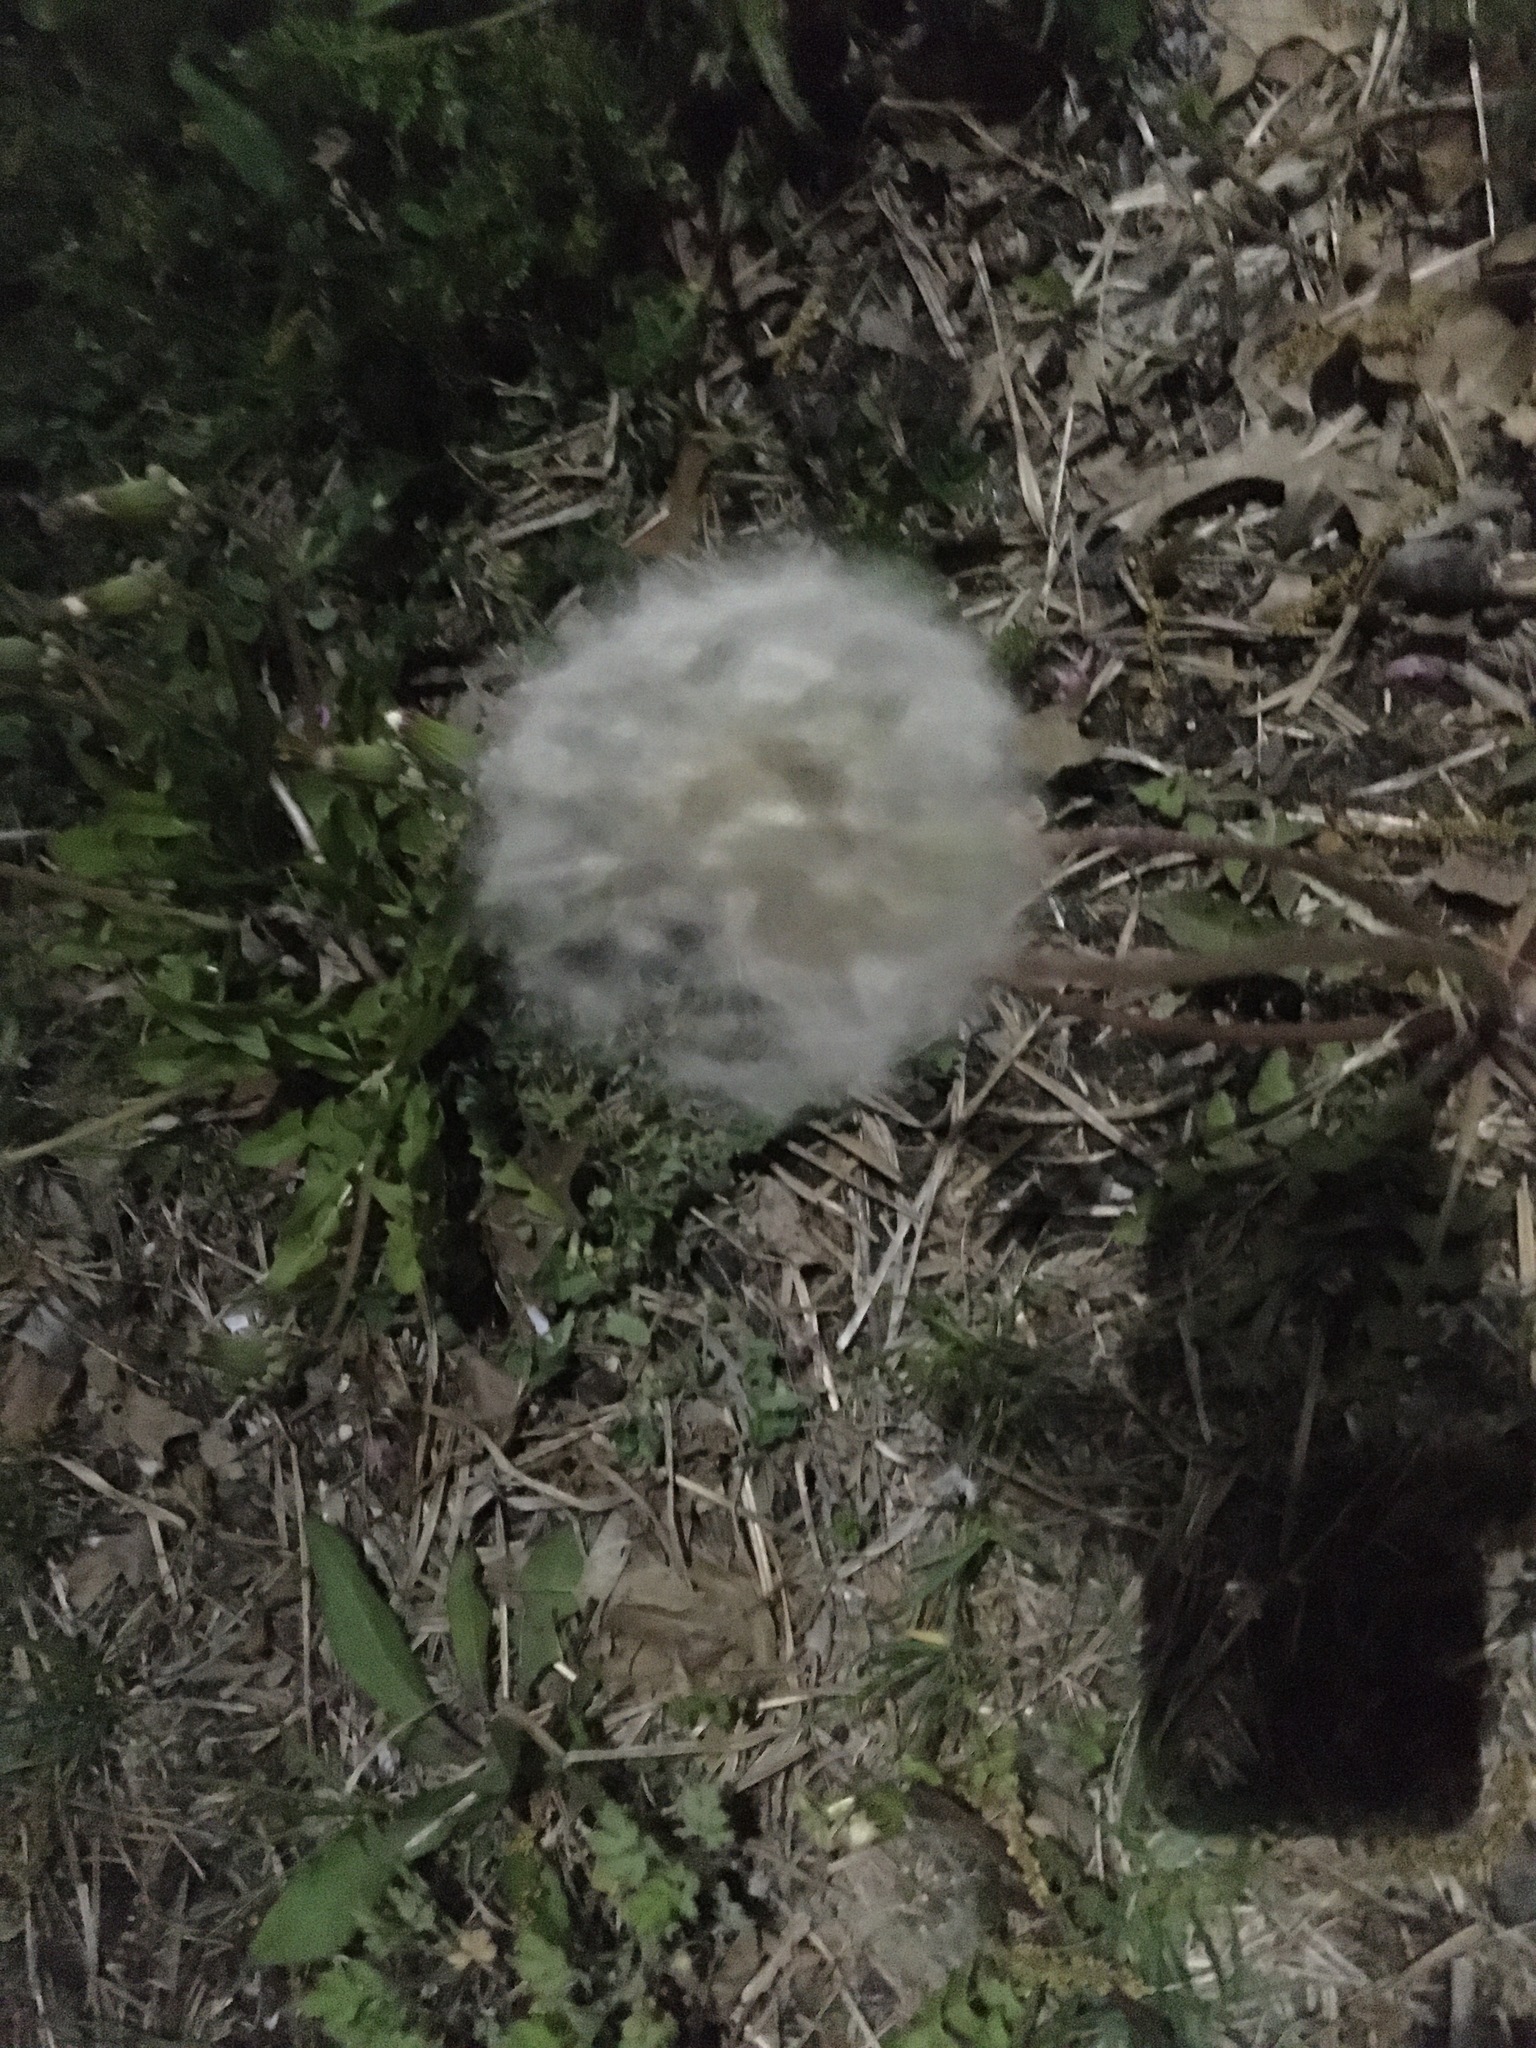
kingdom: Plantae
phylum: Tracheophyta
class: Magnoliopsida
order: Asterales
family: Asteraceae
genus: Taraxacum
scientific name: Taraxacum officinale
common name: Common dandelion
